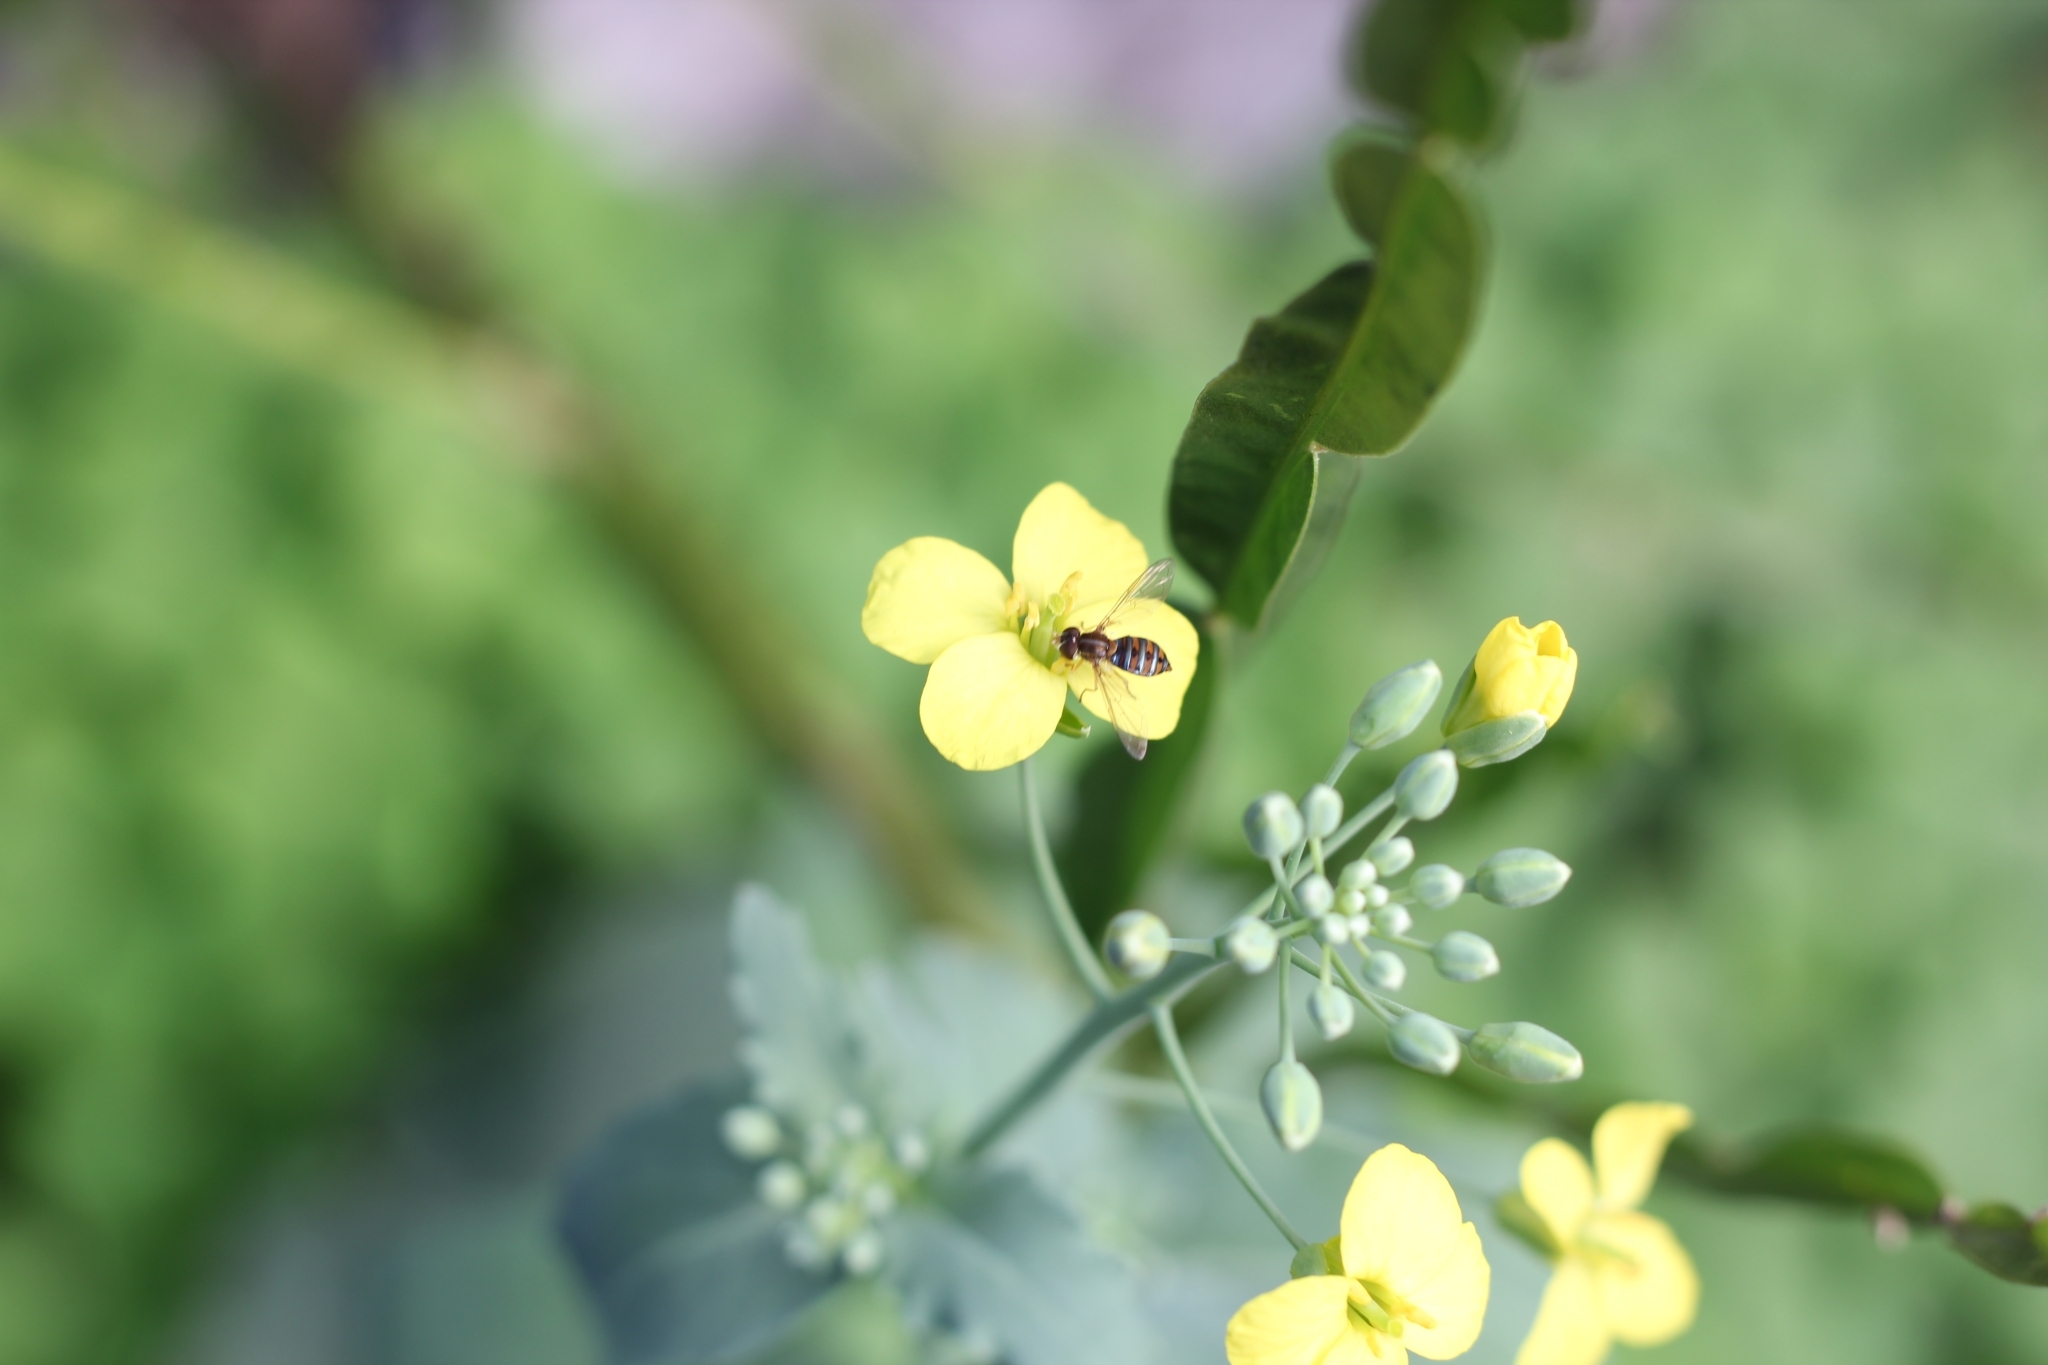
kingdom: Animalia
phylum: Arthropoda
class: Insecta
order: Diptera
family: Syrphidae
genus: Toxomerus
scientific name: Toxomerus
